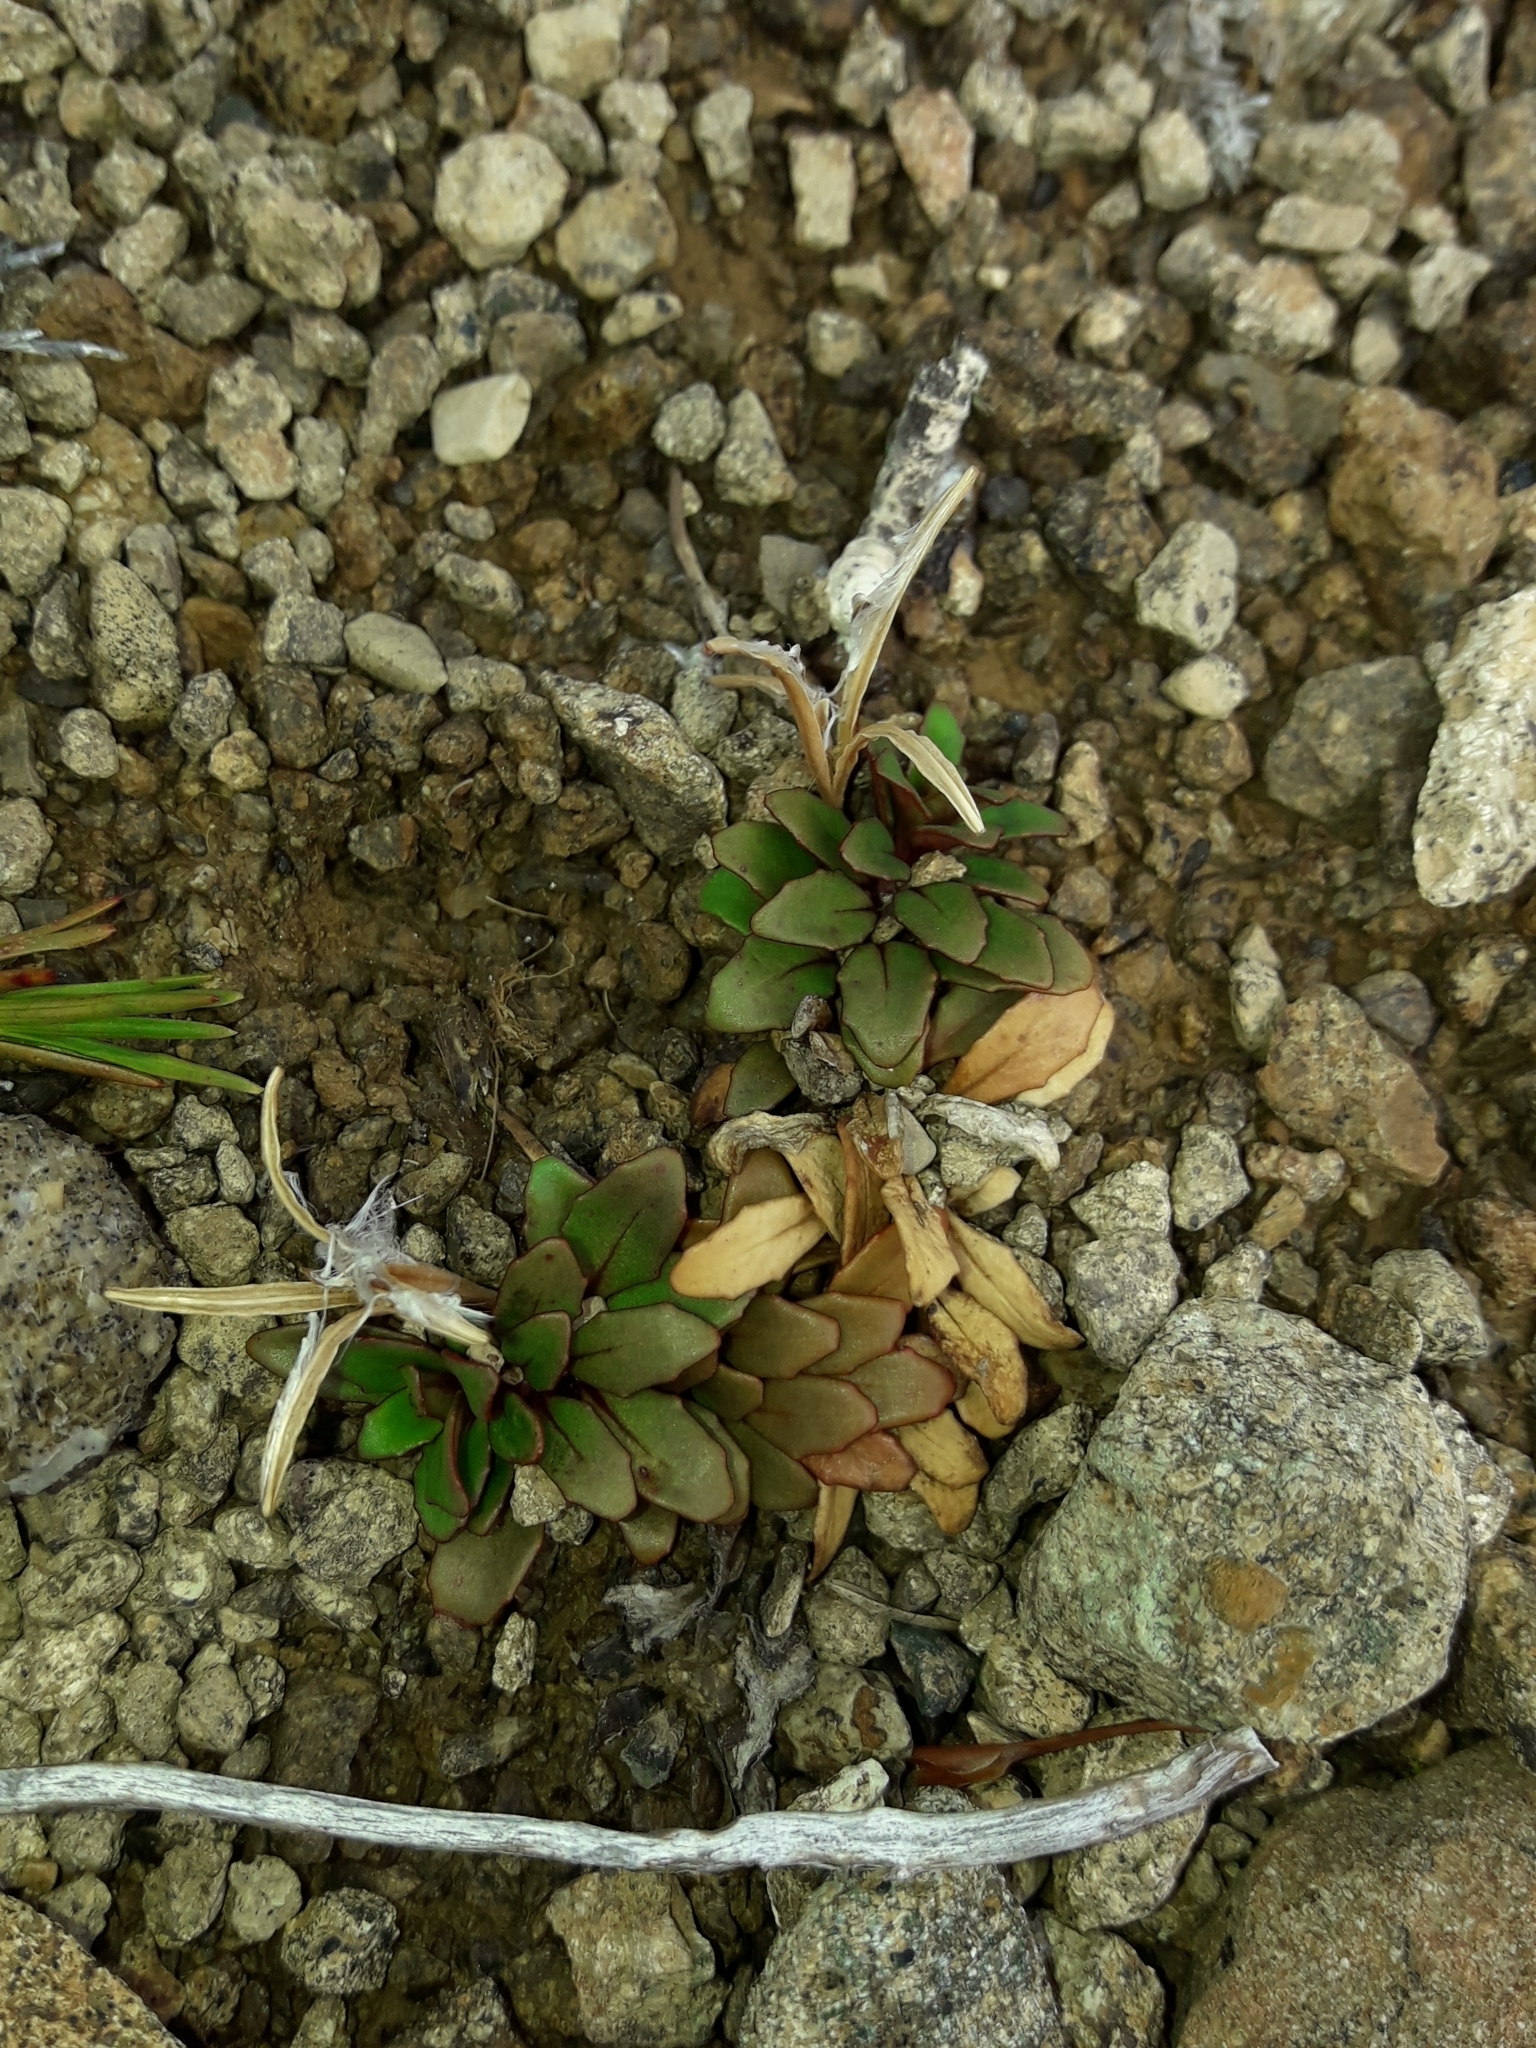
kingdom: Plantae
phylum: Tracheophyta
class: Magnoliopsida
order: Myrtales
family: Onagraceae
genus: Epilobium
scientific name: Epilobium margaretiae
